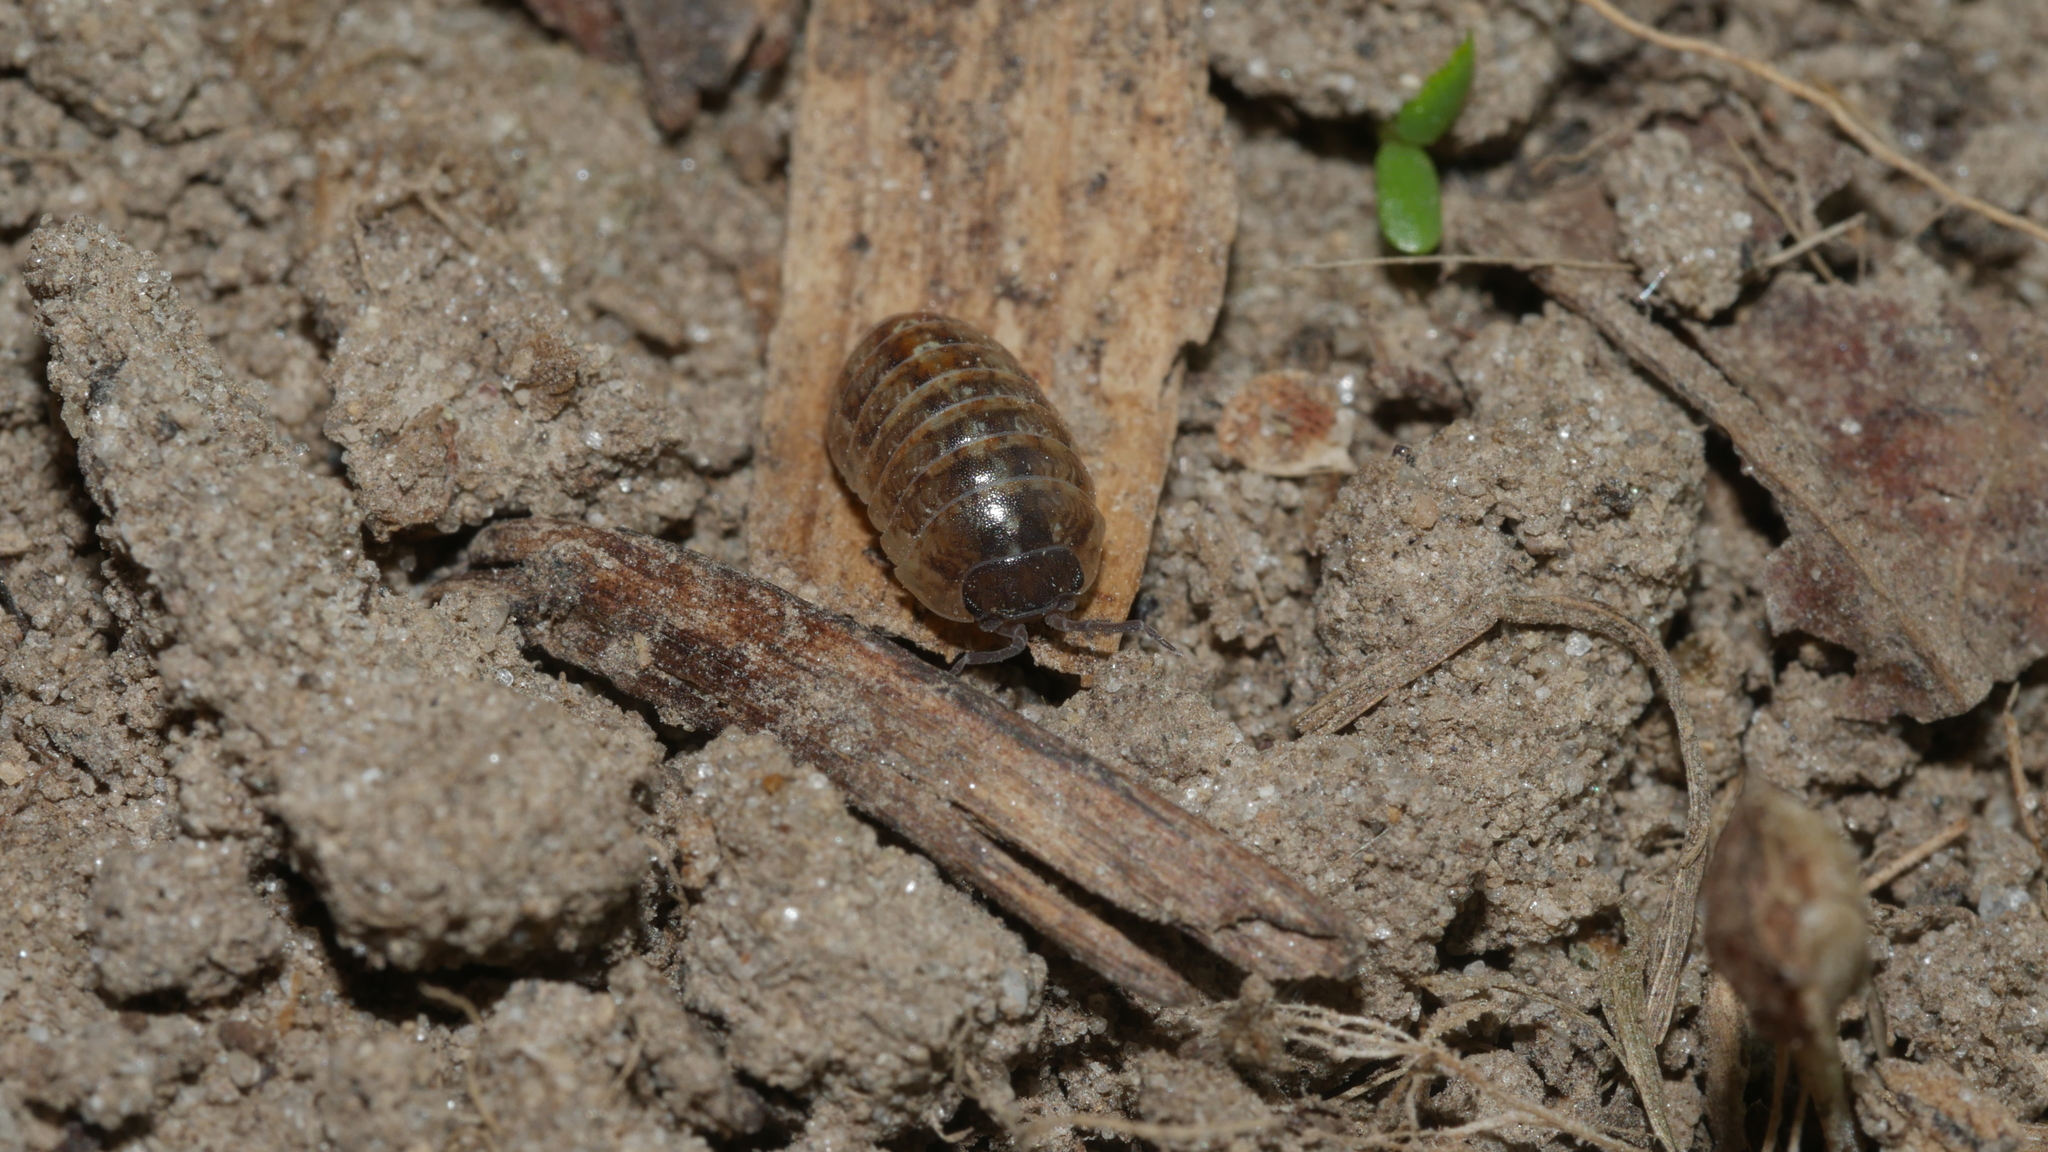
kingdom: Animalia
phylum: Arthropoda
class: Malacostraca
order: Isopoda
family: Armadillidiidae
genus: Armadillidium
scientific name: Armadillidium vulgare
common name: Common pill woodlouse
